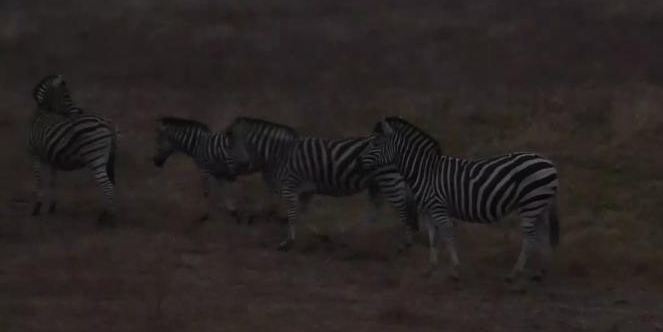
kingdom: Animalia
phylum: Chordata
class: Mammalia
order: Perissodactyla
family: Equidae
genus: Equus
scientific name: Equus quagga
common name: Plains zebra
